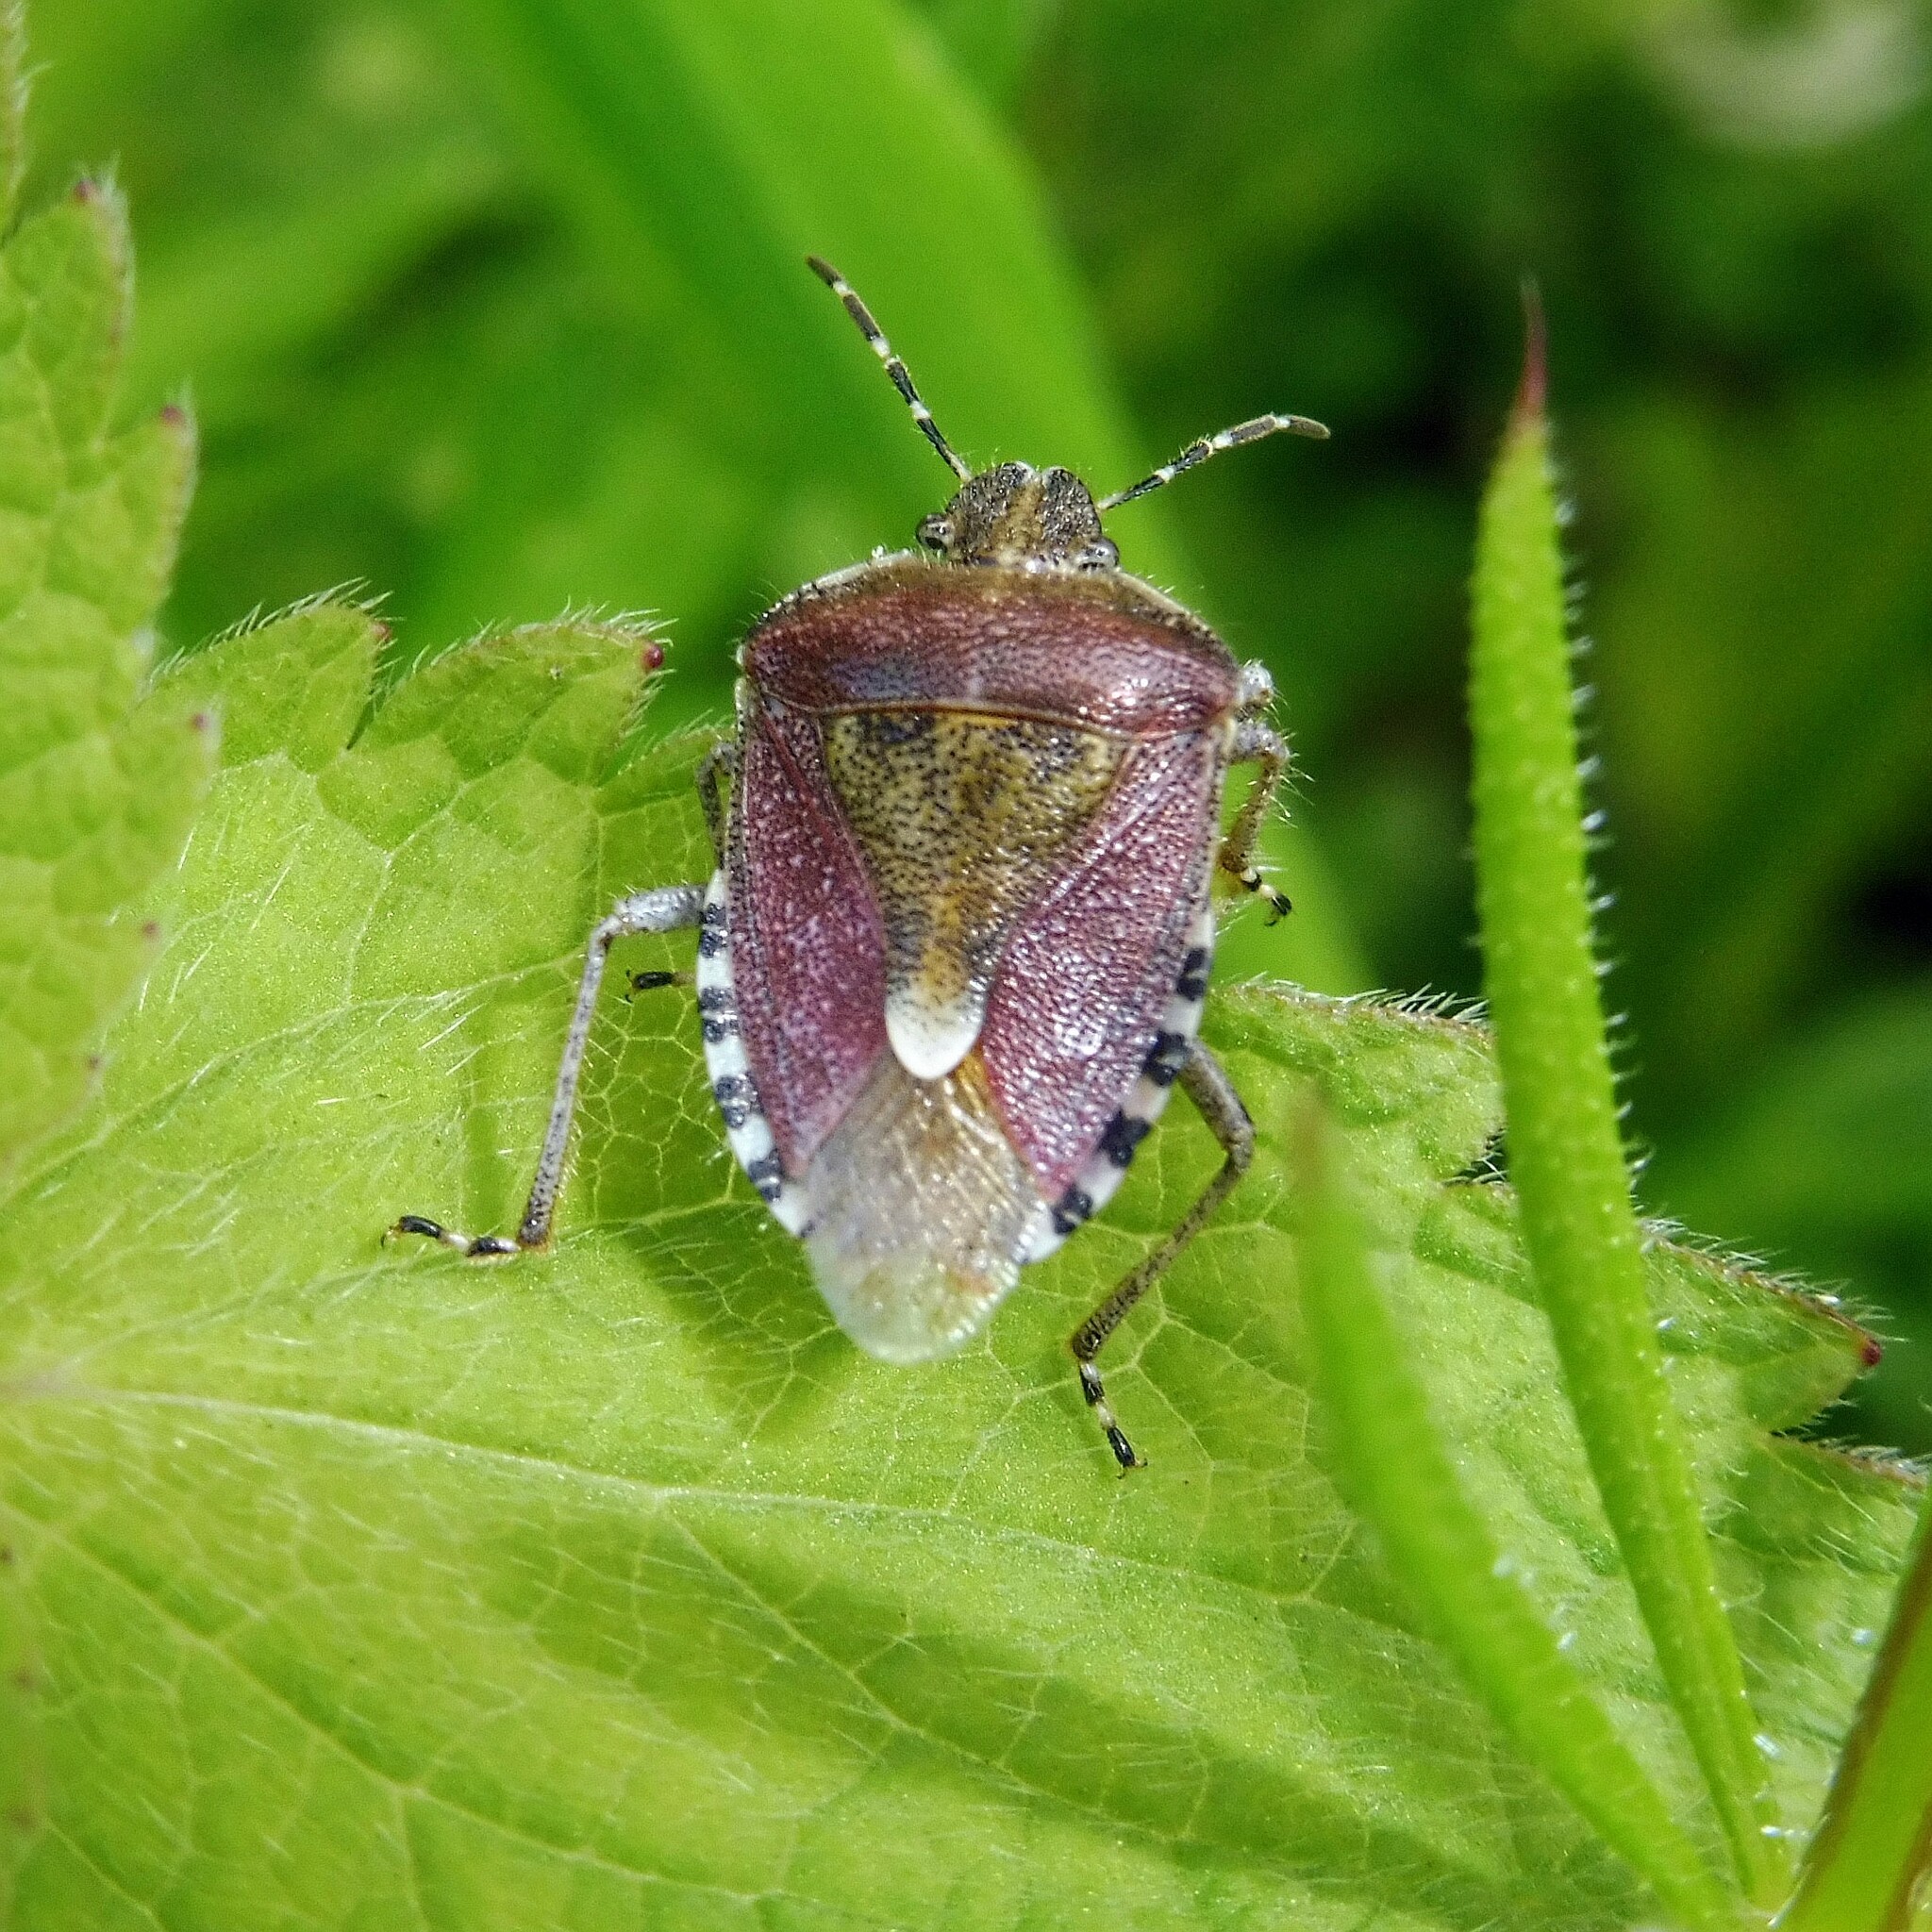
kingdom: Animalia
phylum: Arthropoda
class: Insecta
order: Hemiptera
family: Pentatomidae
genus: Dolycoris
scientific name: Dolycoris baccarum
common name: Sloe bug
